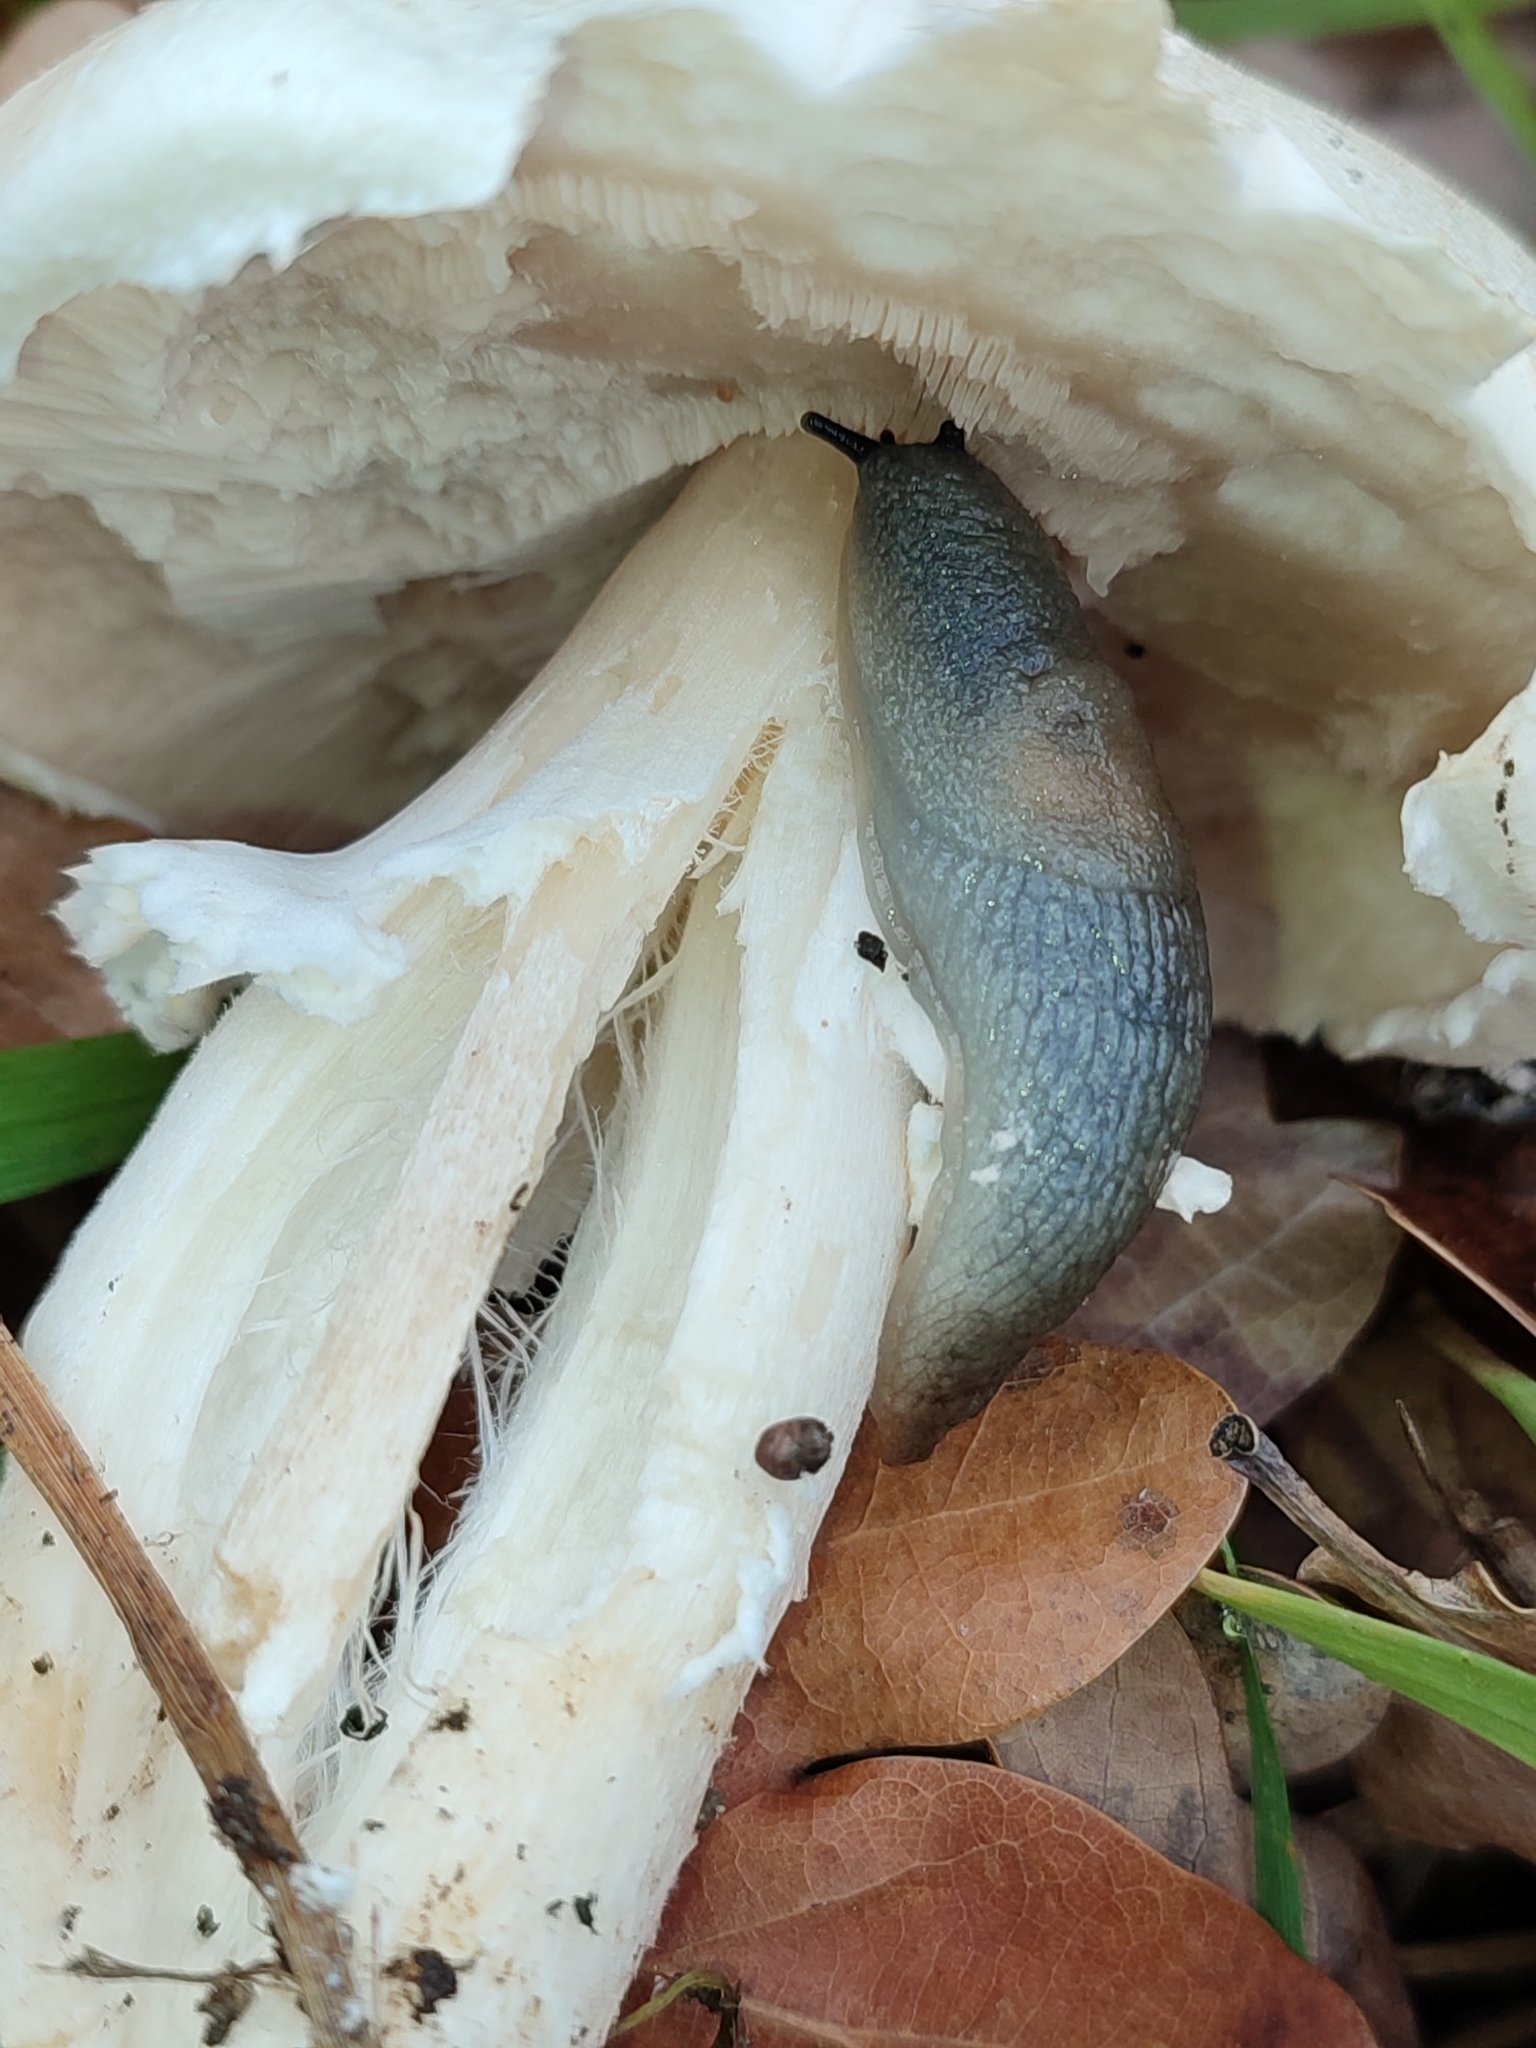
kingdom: Animalia
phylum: Mollusca
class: Gastropoda
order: Stylommatophora
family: Agriolimacidae
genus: Krynickillus
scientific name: Krynickillus melanocephalus
